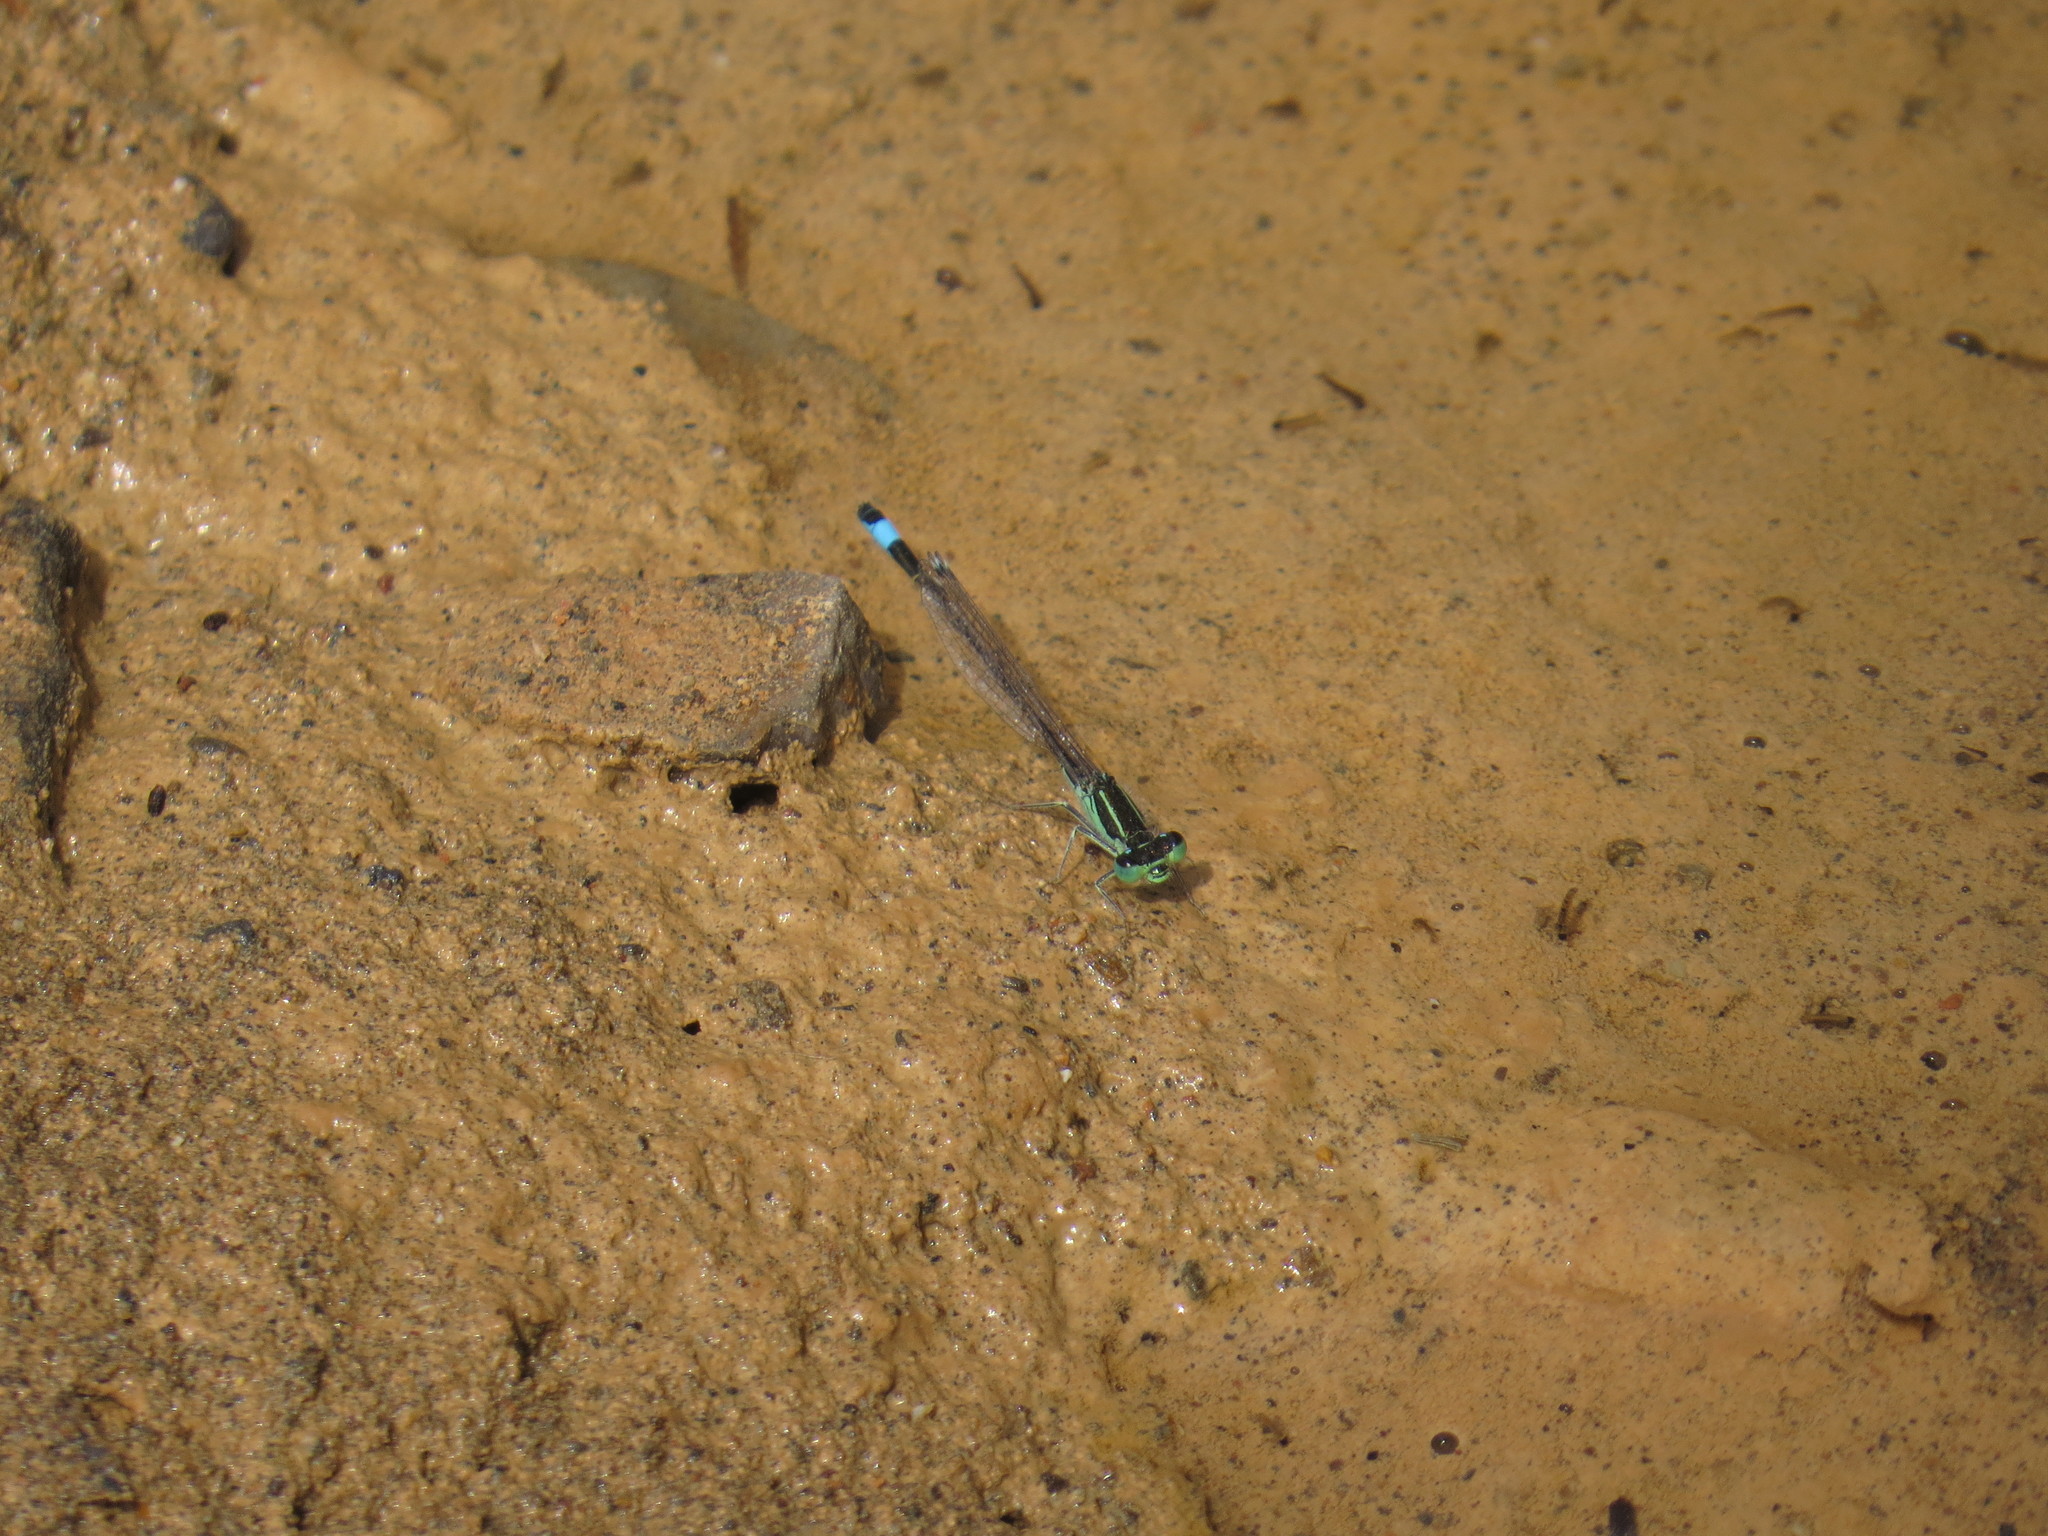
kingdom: Animalia
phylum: Arthropoda
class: Insecta
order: Odonata
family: Coenagrionidae
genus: Ischnura
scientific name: Ischnura saharensis
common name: Sahara bluetail
